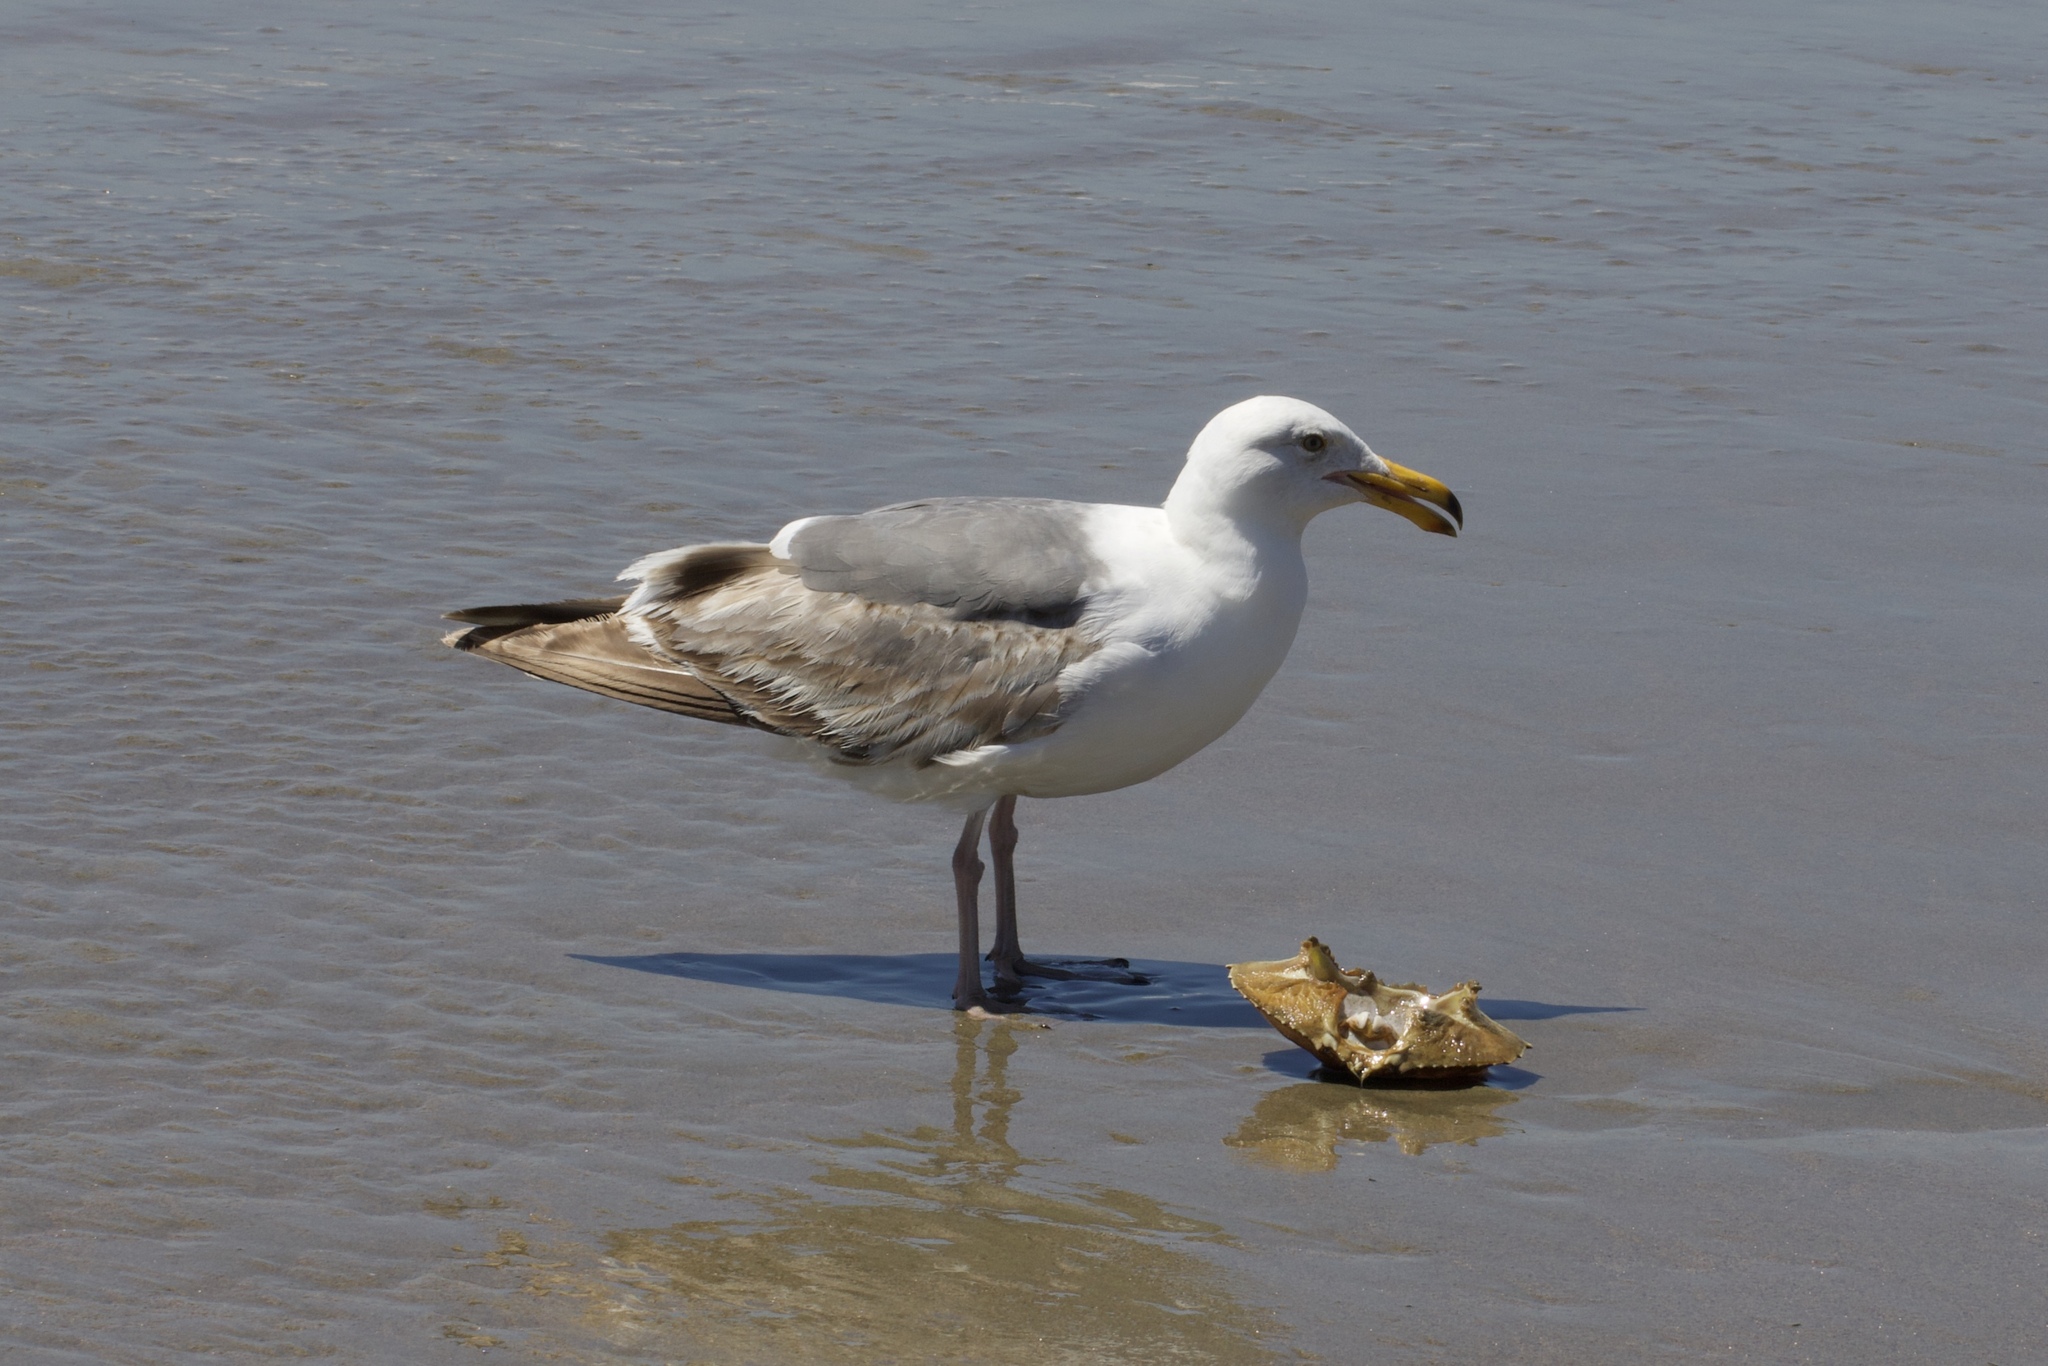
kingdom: Animalia
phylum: Chordata
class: Aves
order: Charadriiformes
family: Laridae
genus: Larus
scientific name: Larus occidentalis
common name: Western gull
